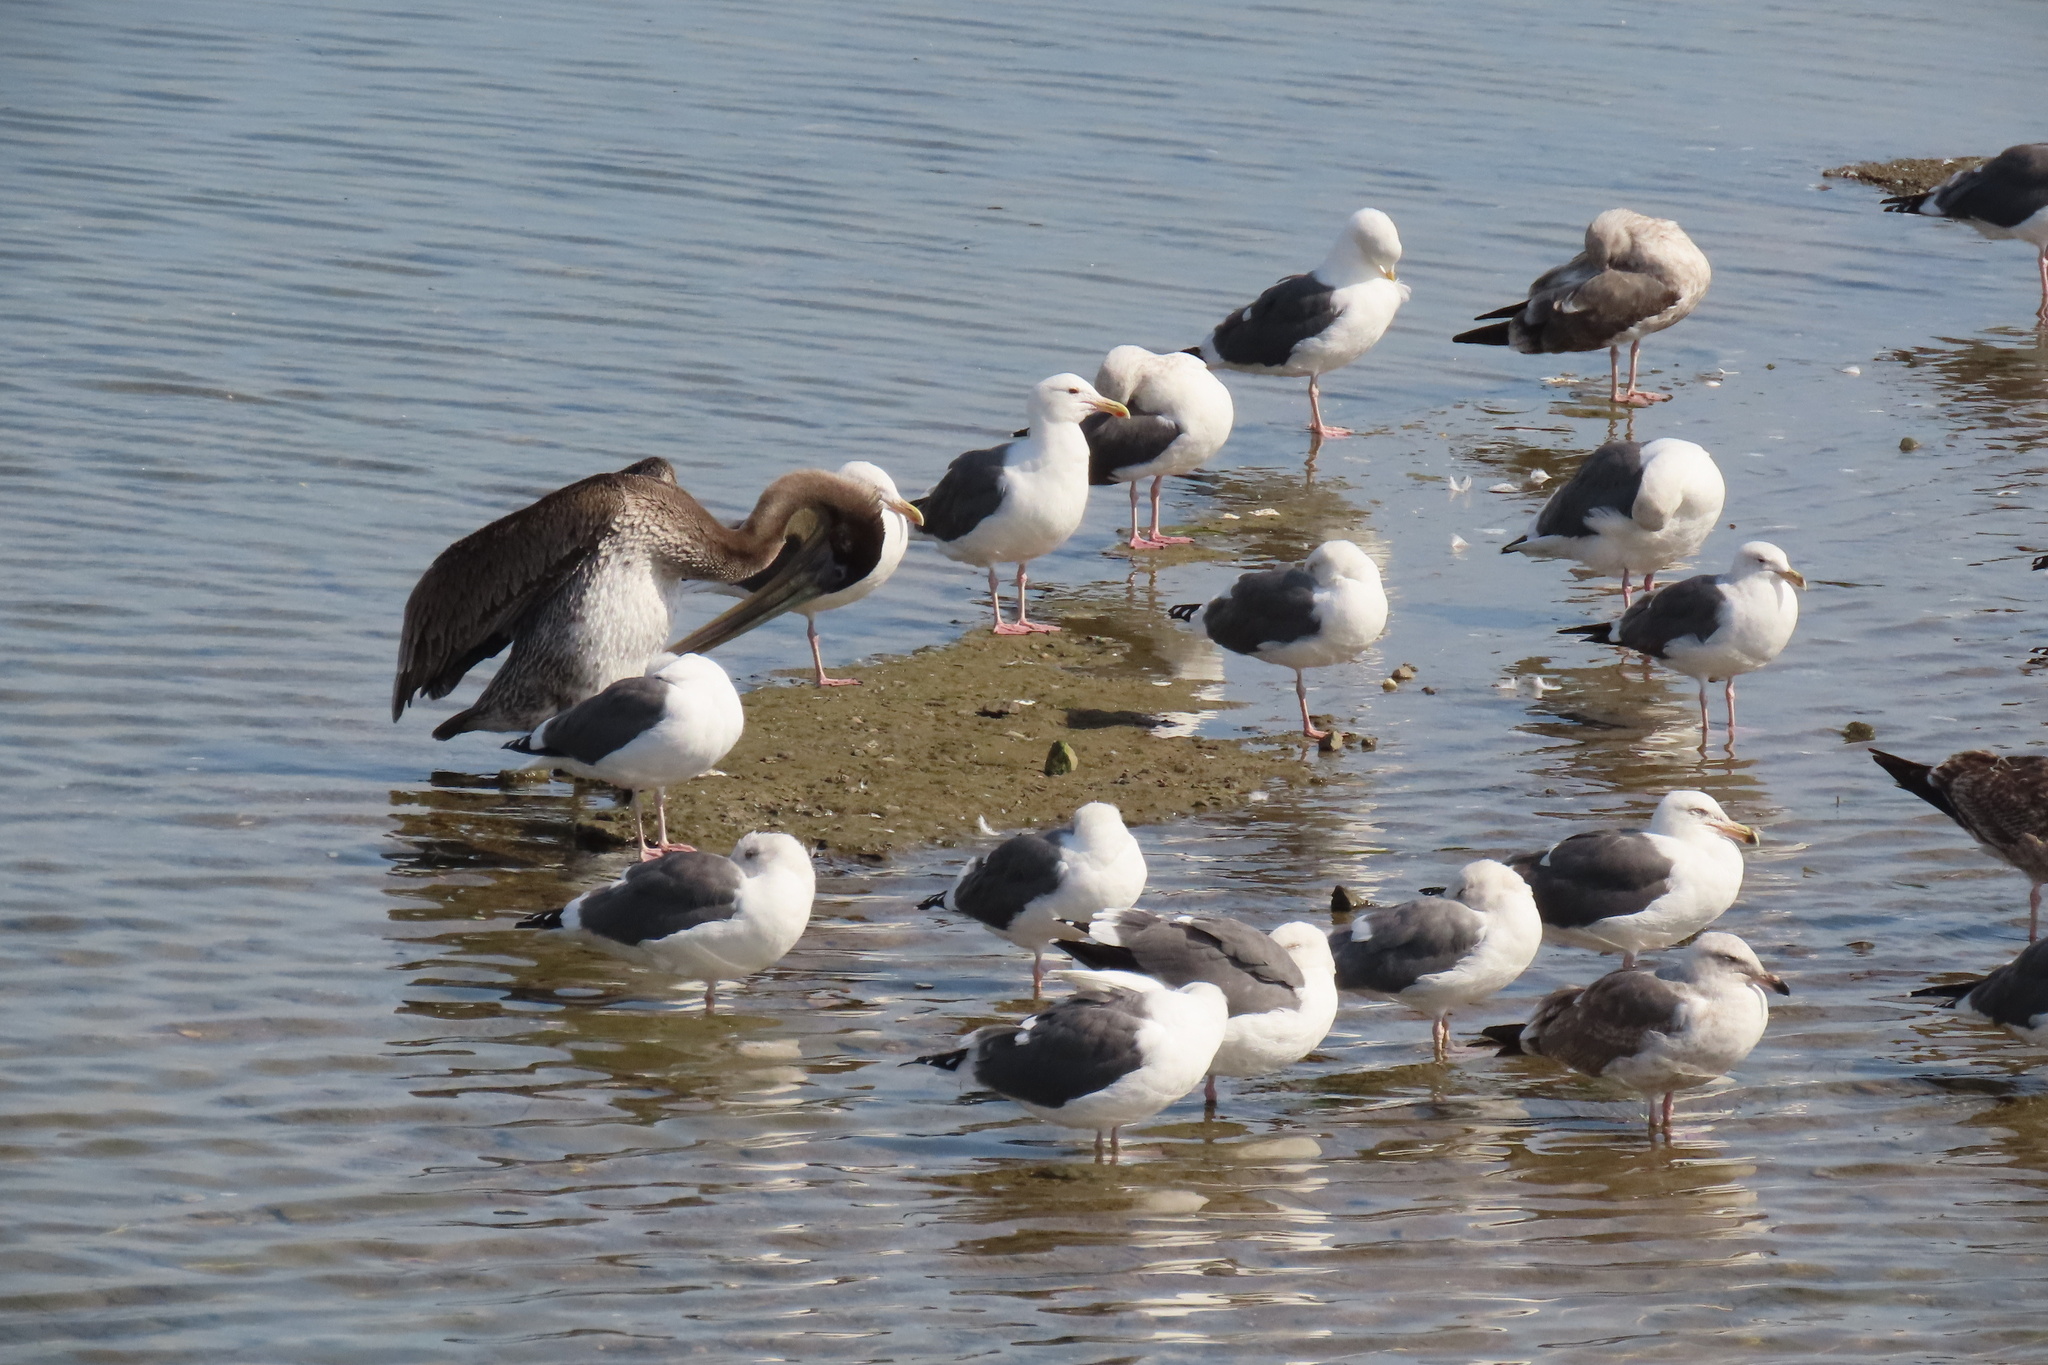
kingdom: Animalia
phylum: Chordata
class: Aves
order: Charadriiformes
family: Laridae
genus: Larus
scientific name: Larus occidentalis
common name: Western gull
